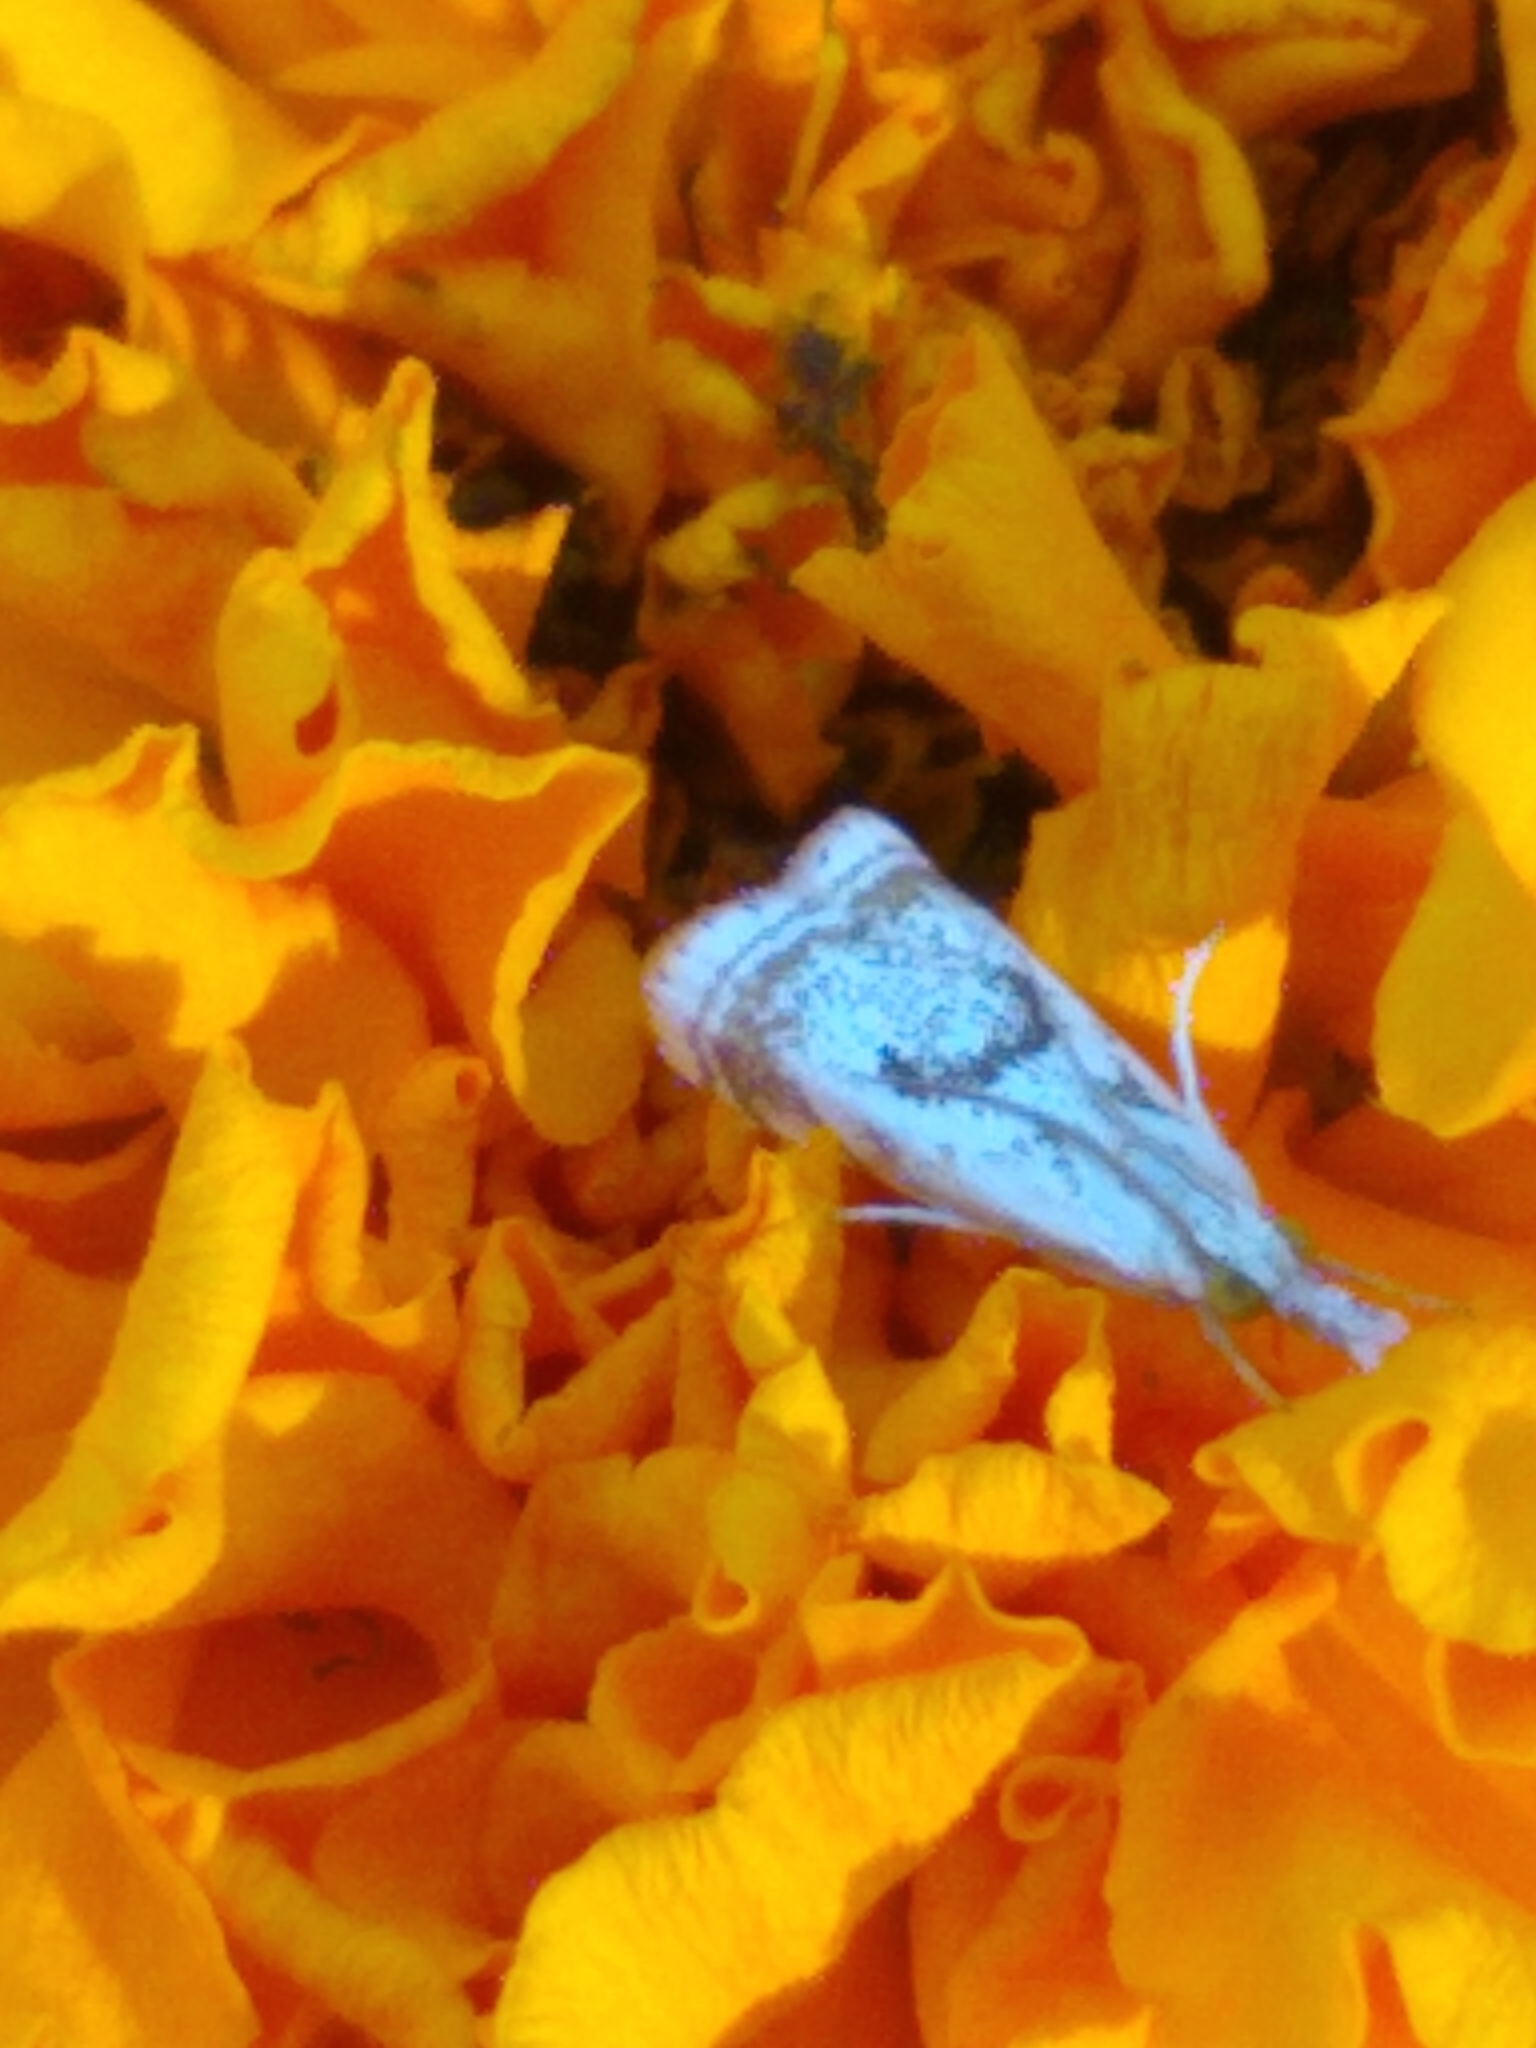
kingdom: Animalia
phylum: Arthropoda
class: Insecta
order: Lepidoptera
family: Crambidae
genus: Microcrambus
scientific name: Microcrambus elegans
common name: Elegant grass-veneer
